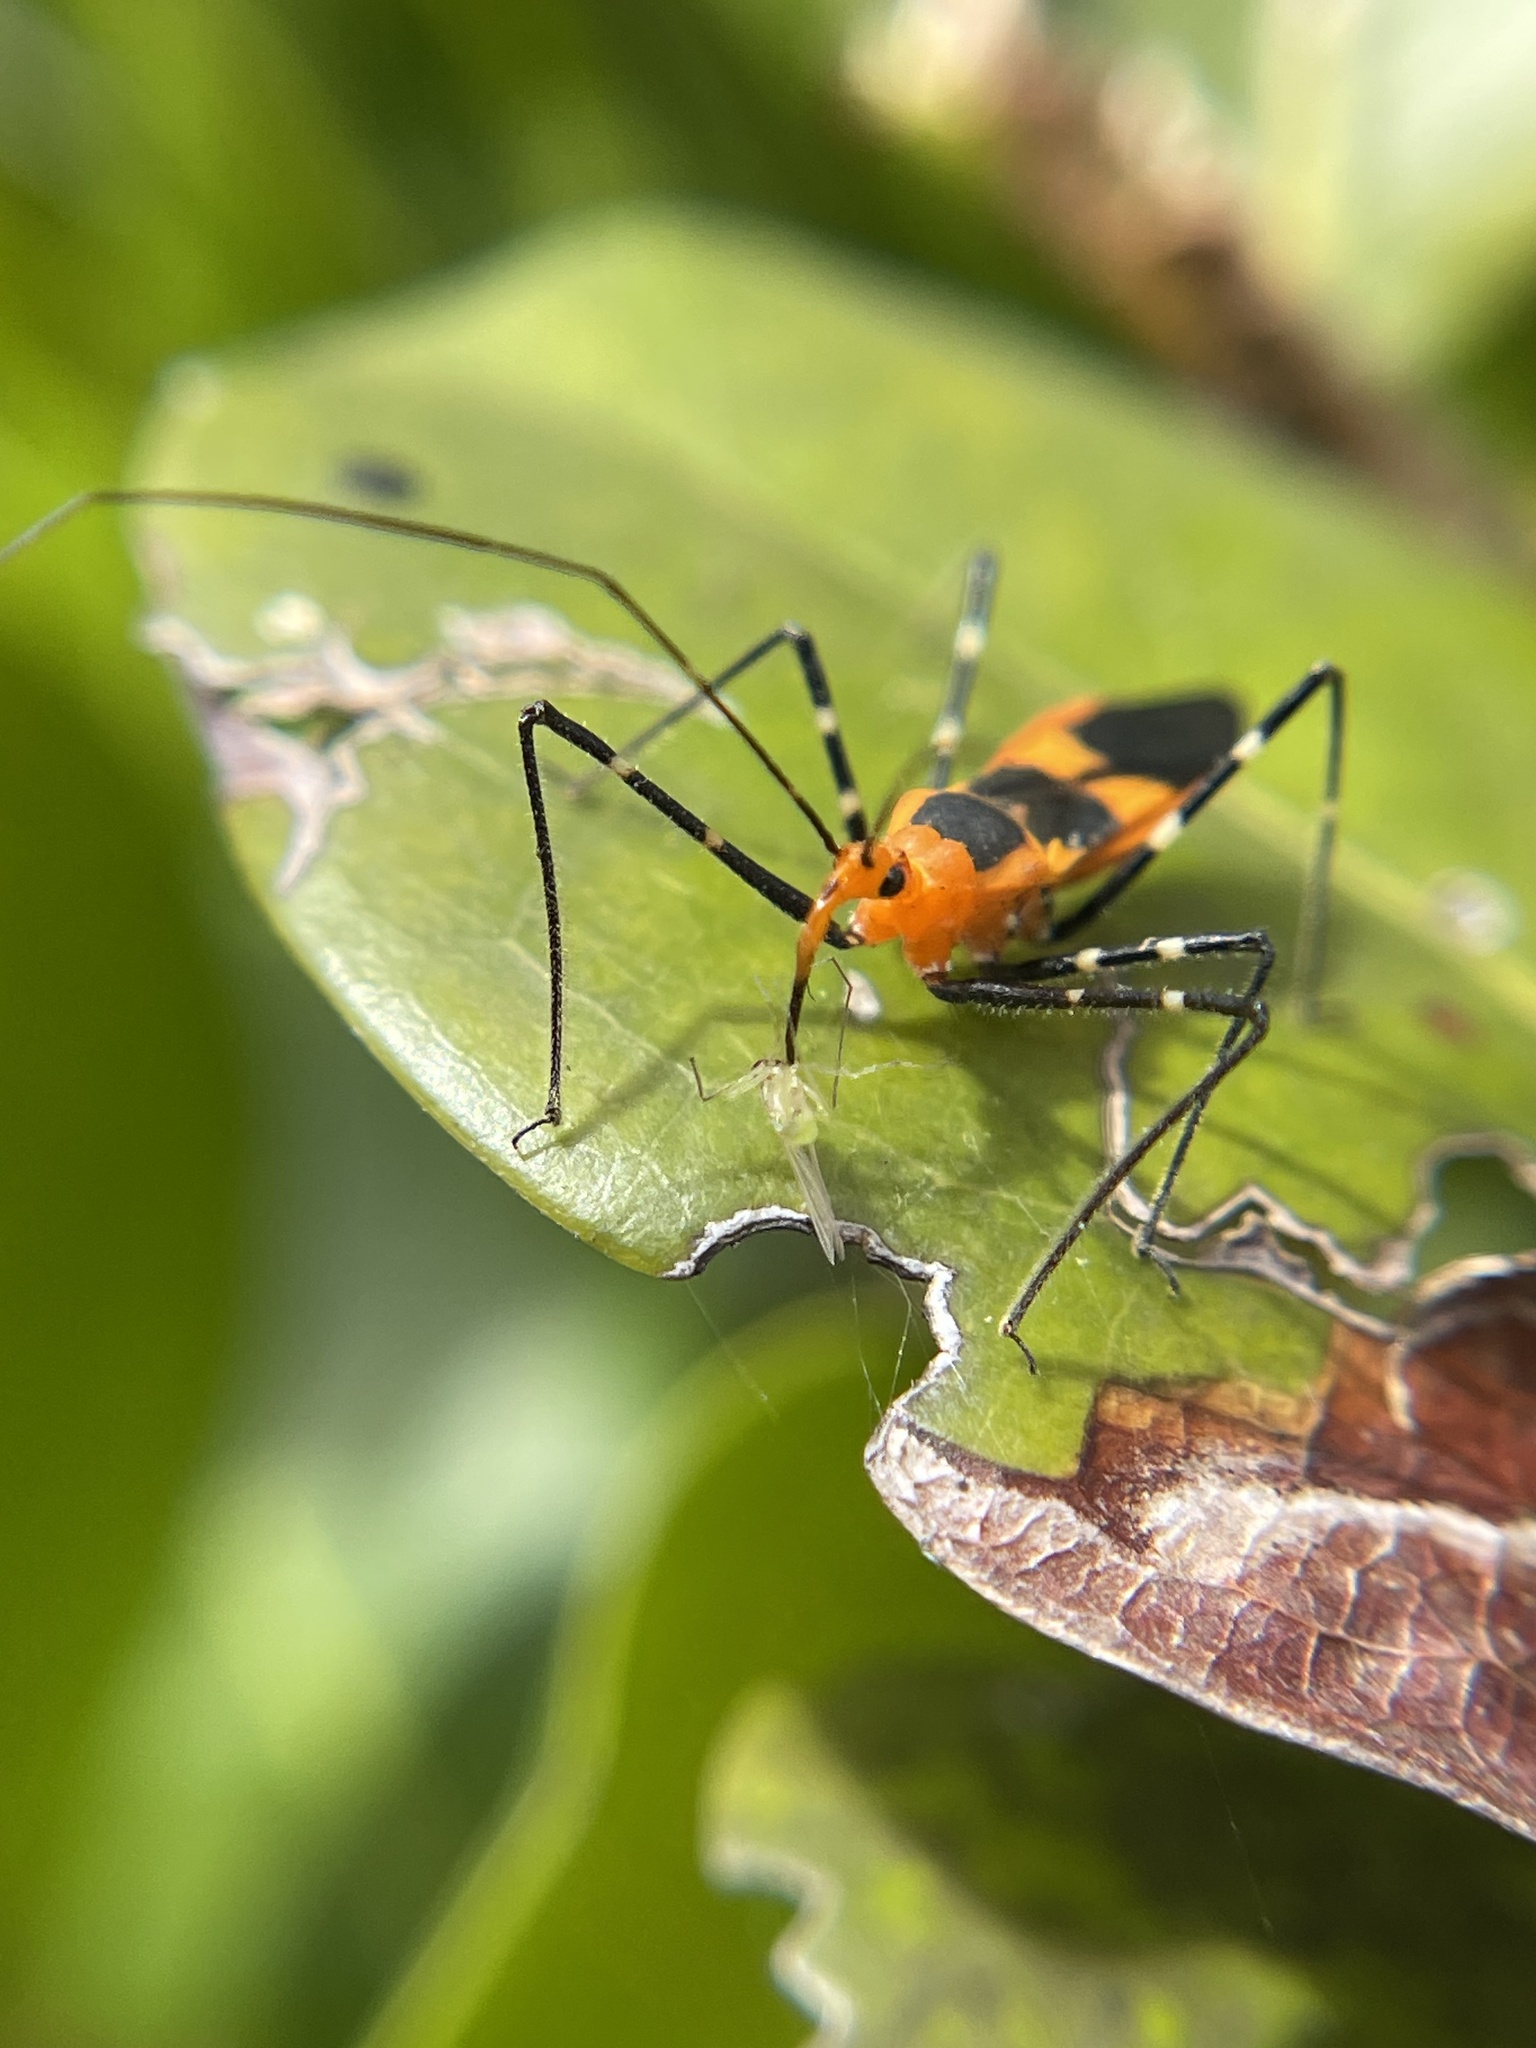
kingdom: Animalia
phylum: Arthropoda
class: Insecta
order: Hemiptera
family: Reduviidae
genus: Zelus
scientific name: Zelus longipes
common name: Milkweed assassin bug
